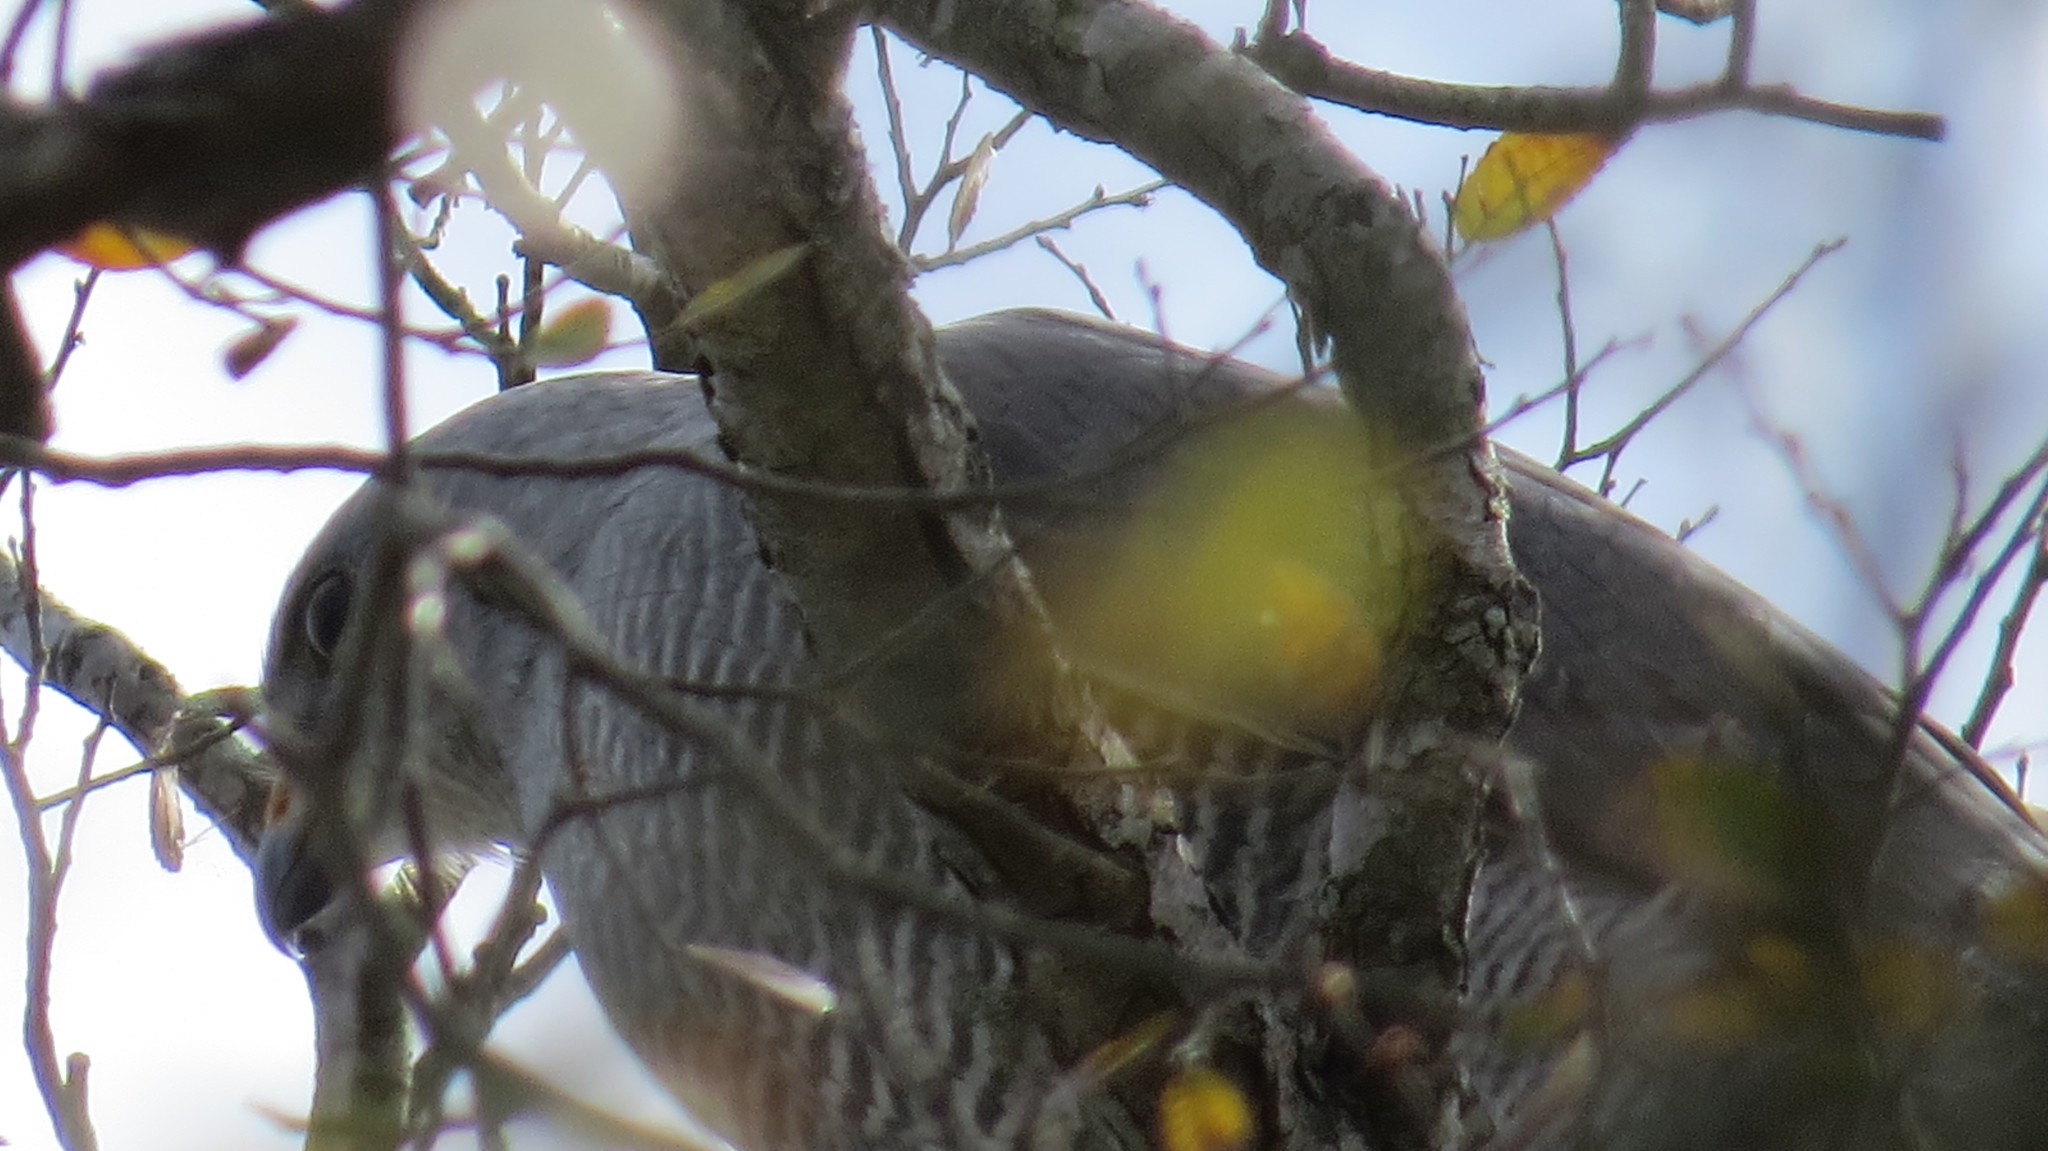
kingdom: Animalia
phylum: Chordata
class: Aves
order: Accipitriformes
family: Accipitridae
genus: Buteo
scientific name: Buteo nitidus
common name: Grey-lined hawk
